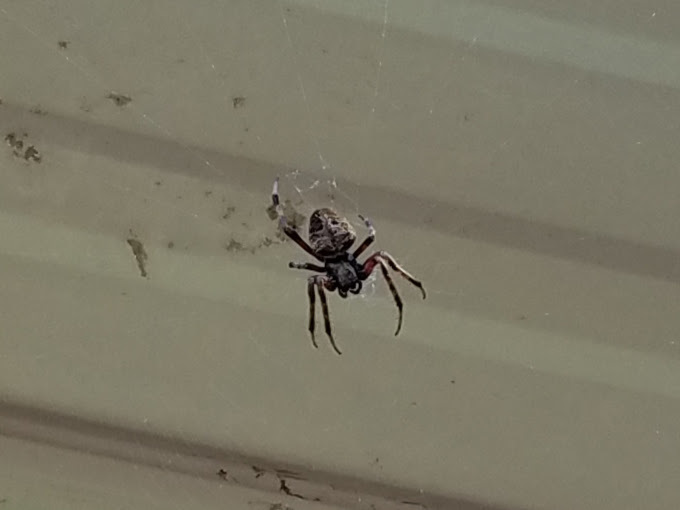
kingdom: Animalia
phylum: Arthropoda
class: Arachnida
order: Araneae
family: Araneidae
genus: Neoscona
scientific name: Neoscona domiciliorum
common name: Red-femured spotted orbweaver
